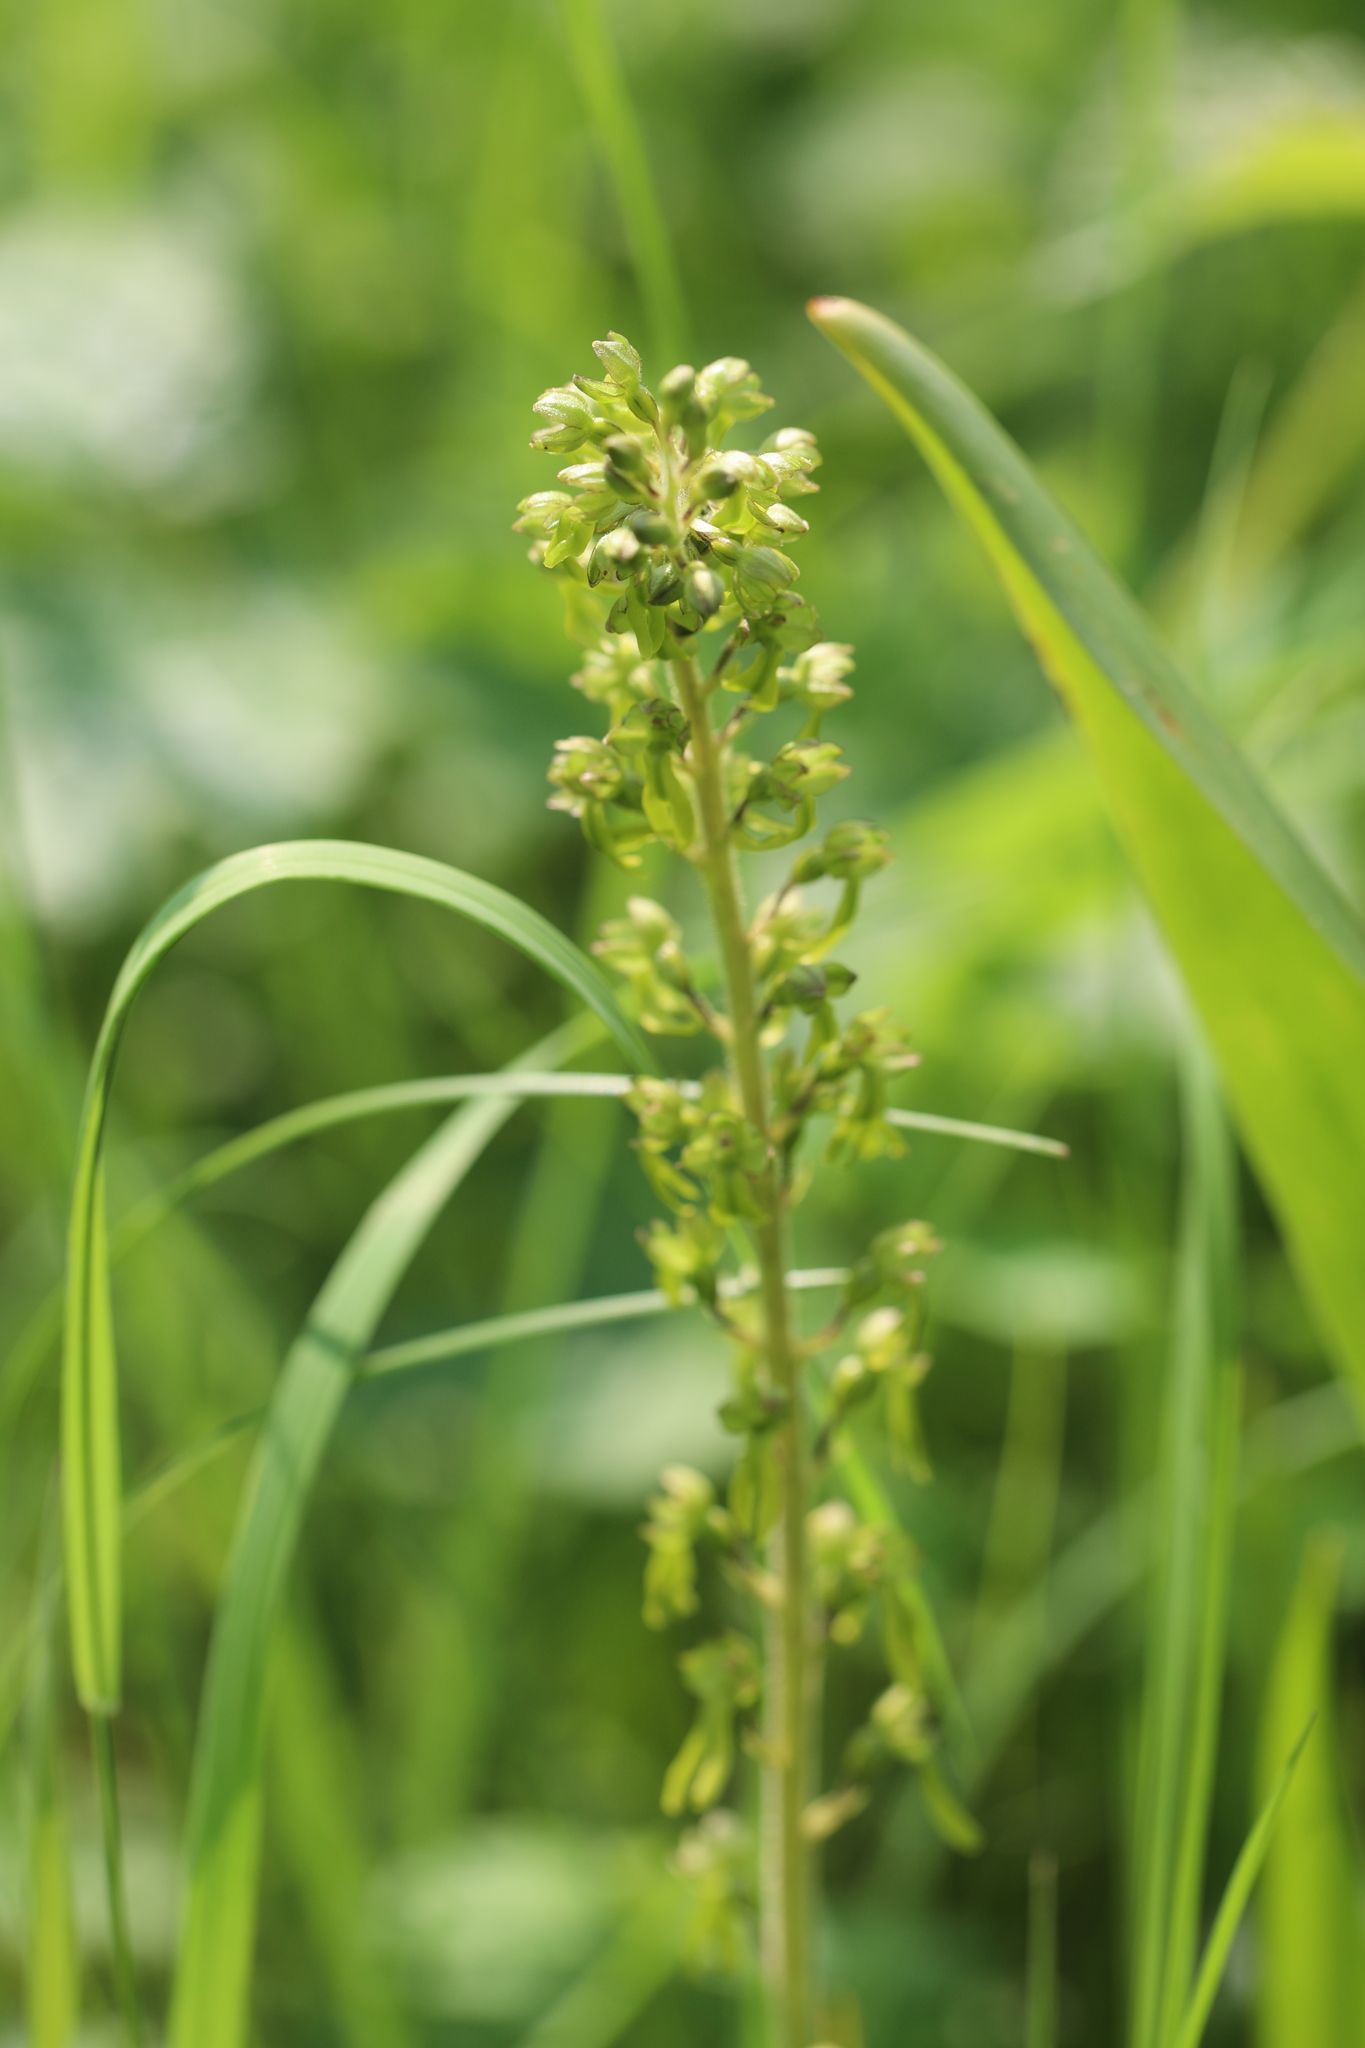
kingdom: Plantae
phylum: Tracheophyta
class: Liliopsida
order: Asparagales
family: Orchidaceae
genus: Neottia
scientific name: Neottia ovata
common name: Common twayblade
